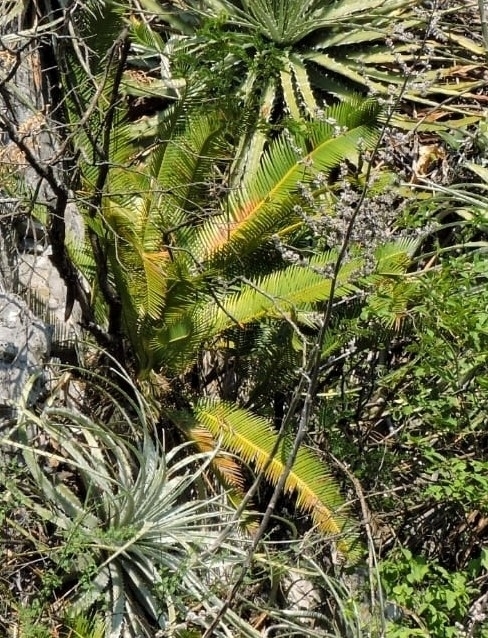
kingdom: Plantae
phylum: Tracheophyta
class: Cycadopsida
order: Cycadales
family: Zamiaceae
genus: Dioon
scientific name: Dioon angustifolium
